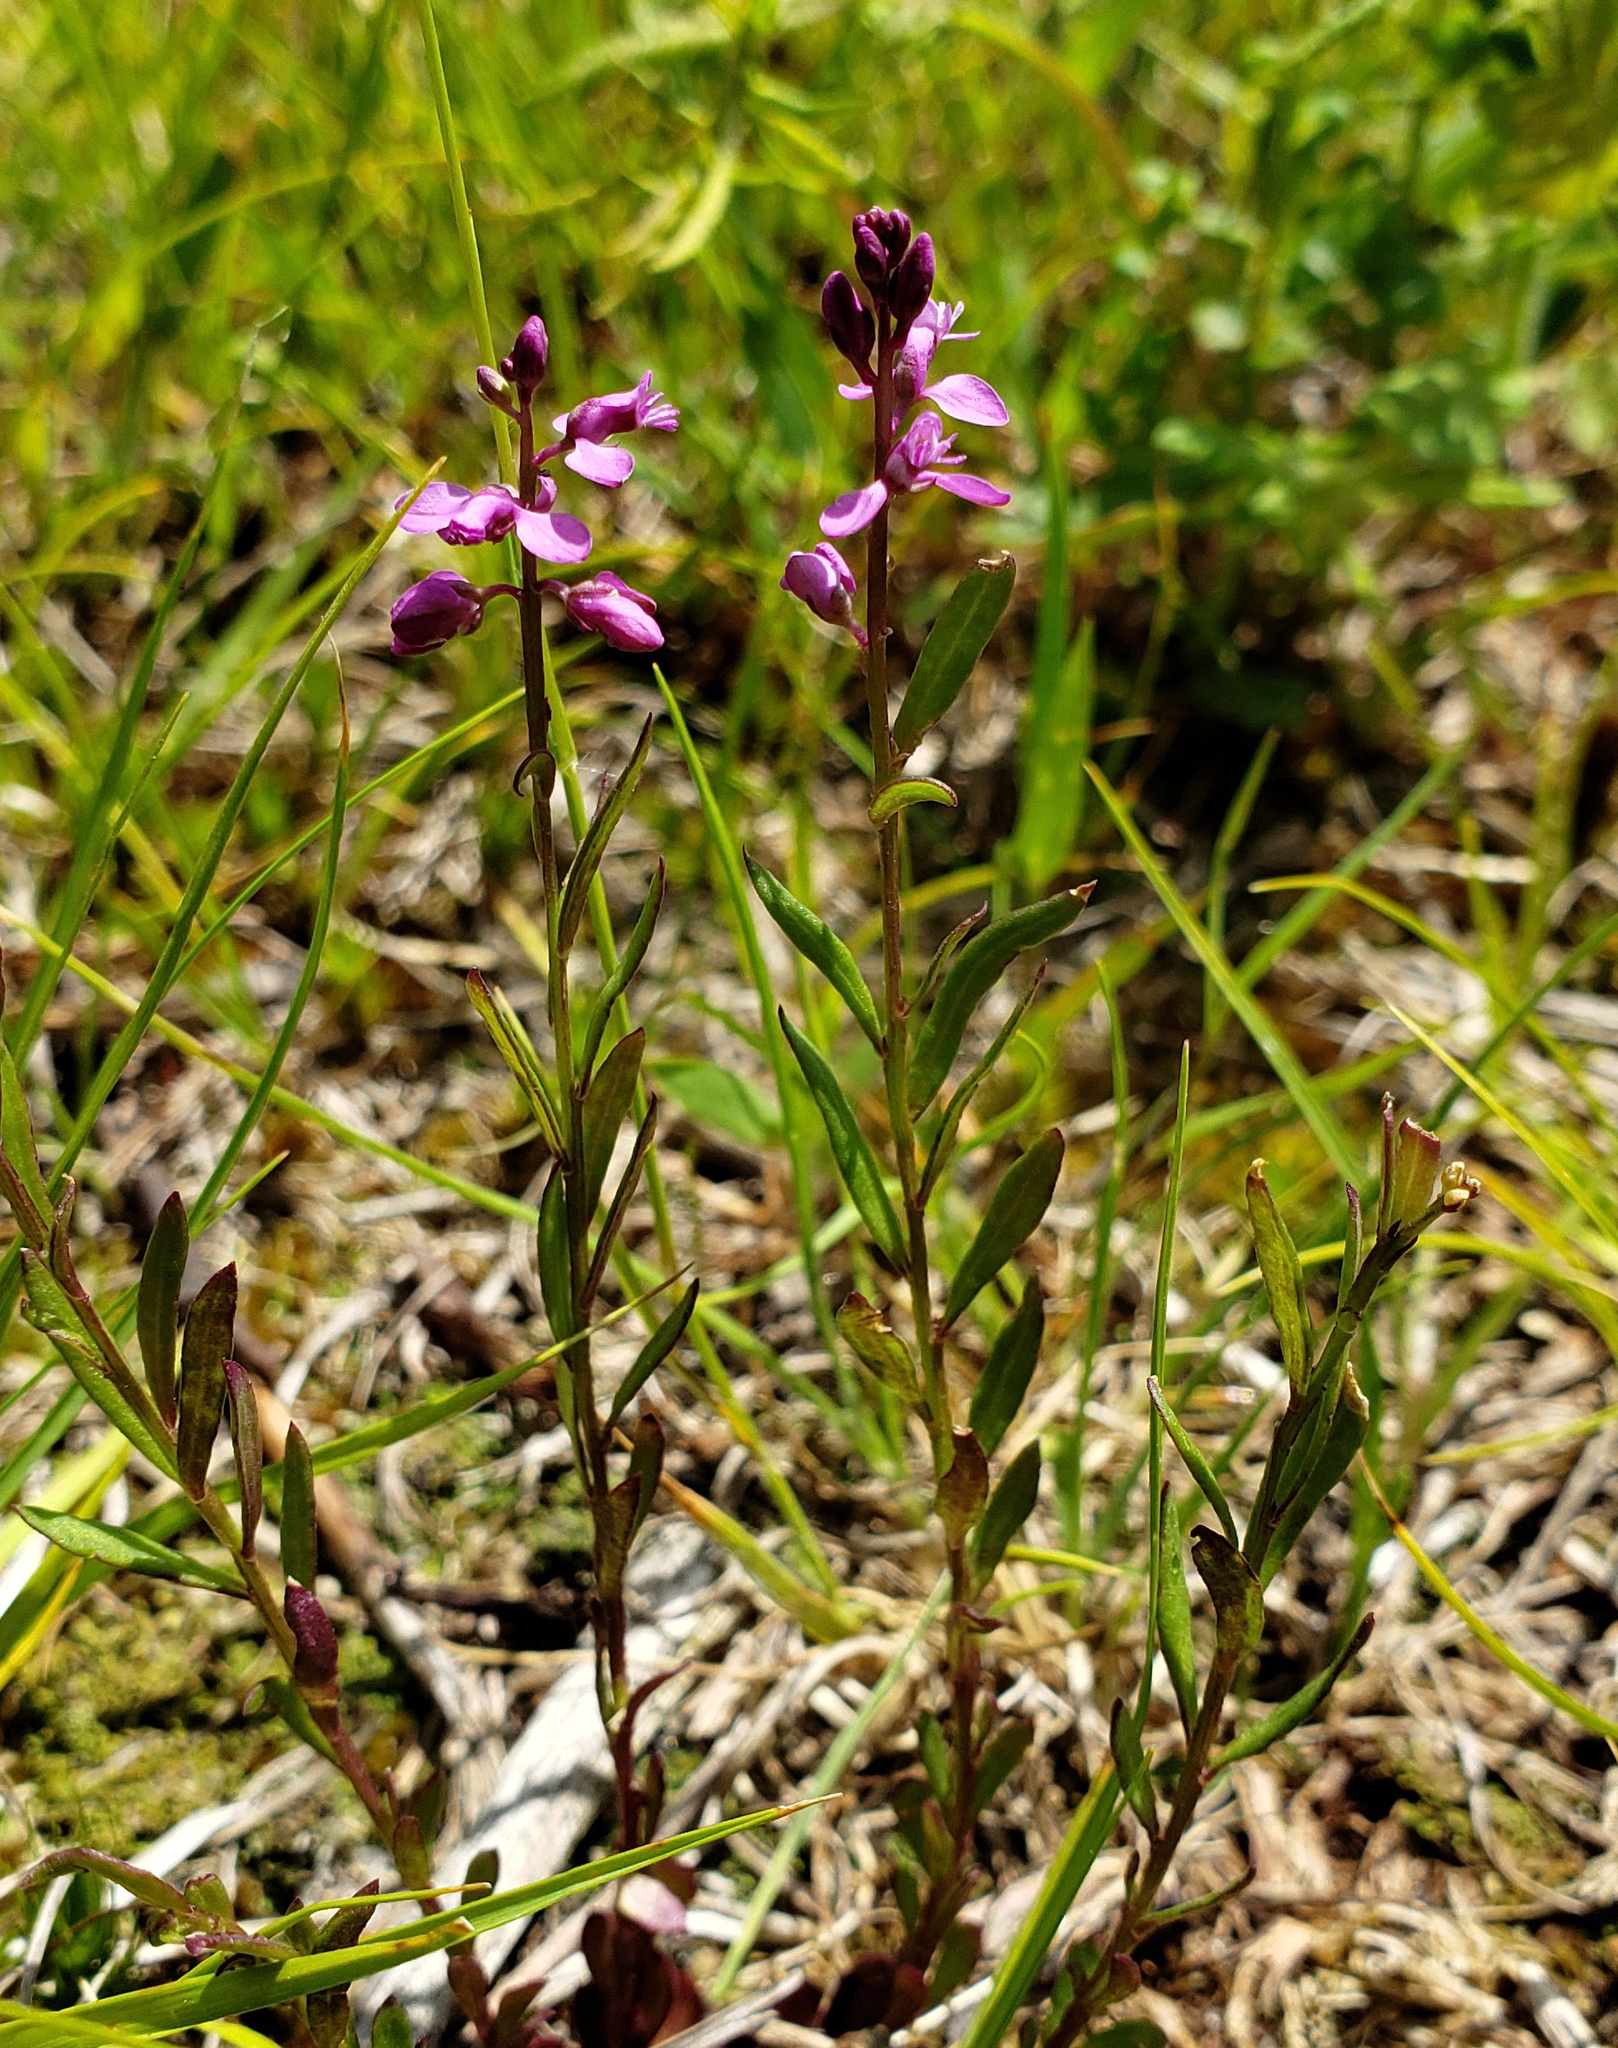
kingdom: Plantae
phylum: Tracheophyta
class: Magnoliopsida
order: Fabales
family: Polygalaceae
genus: Polygala
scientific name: Polygala polygama
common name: Bitter milkwort
